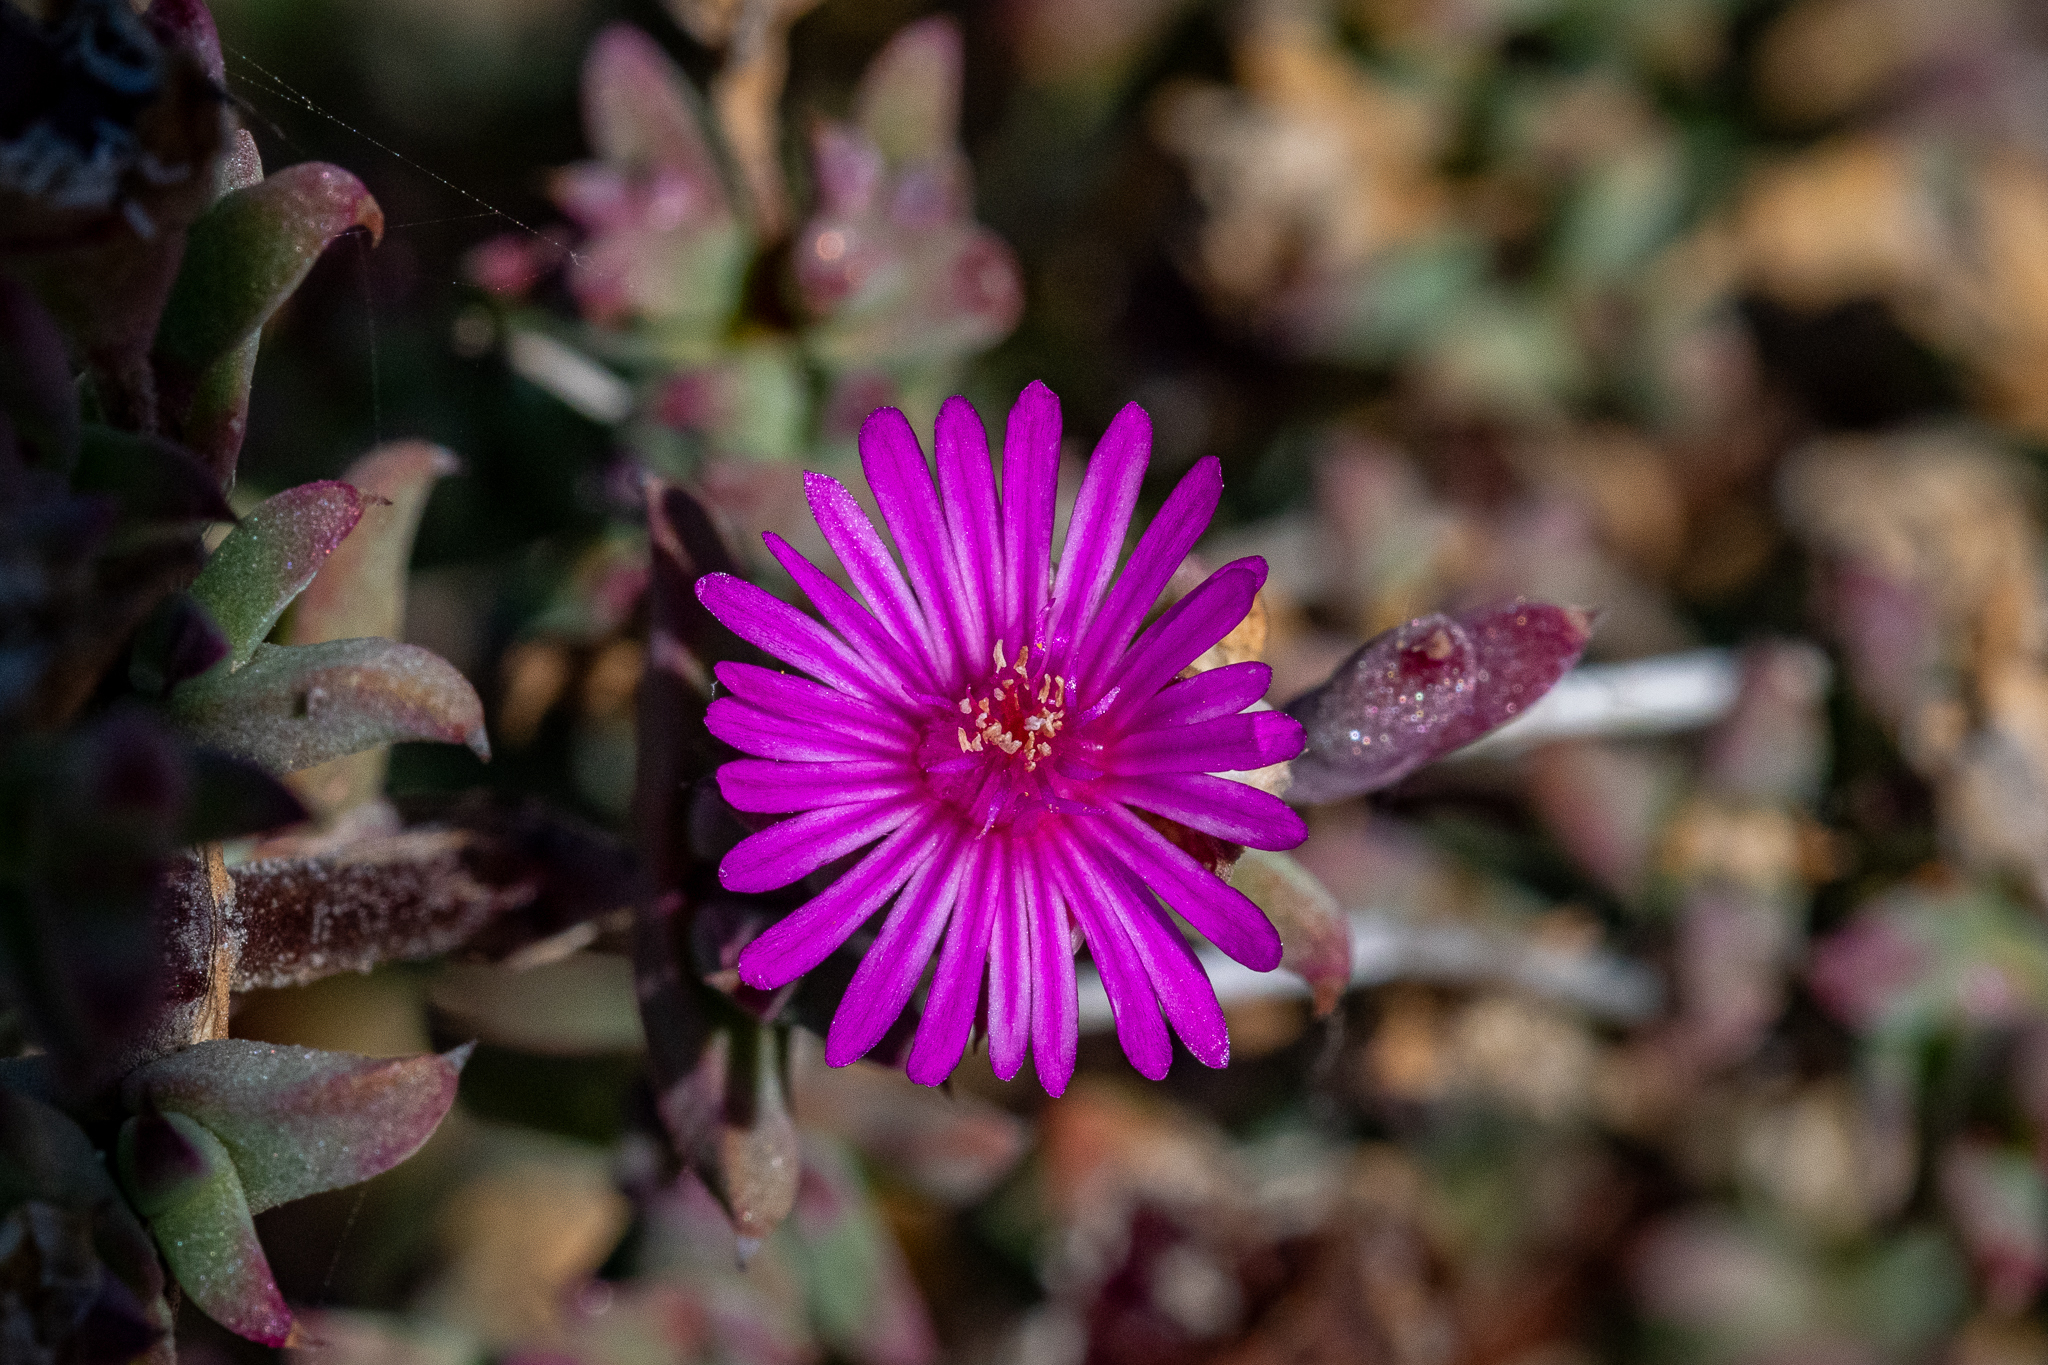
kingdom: Plantae
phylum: Tracheophyta
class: Magnoliopsida
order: Caryophyllales
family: Aizoaceae
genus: Delosperma
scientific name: Delosperma asperulum
